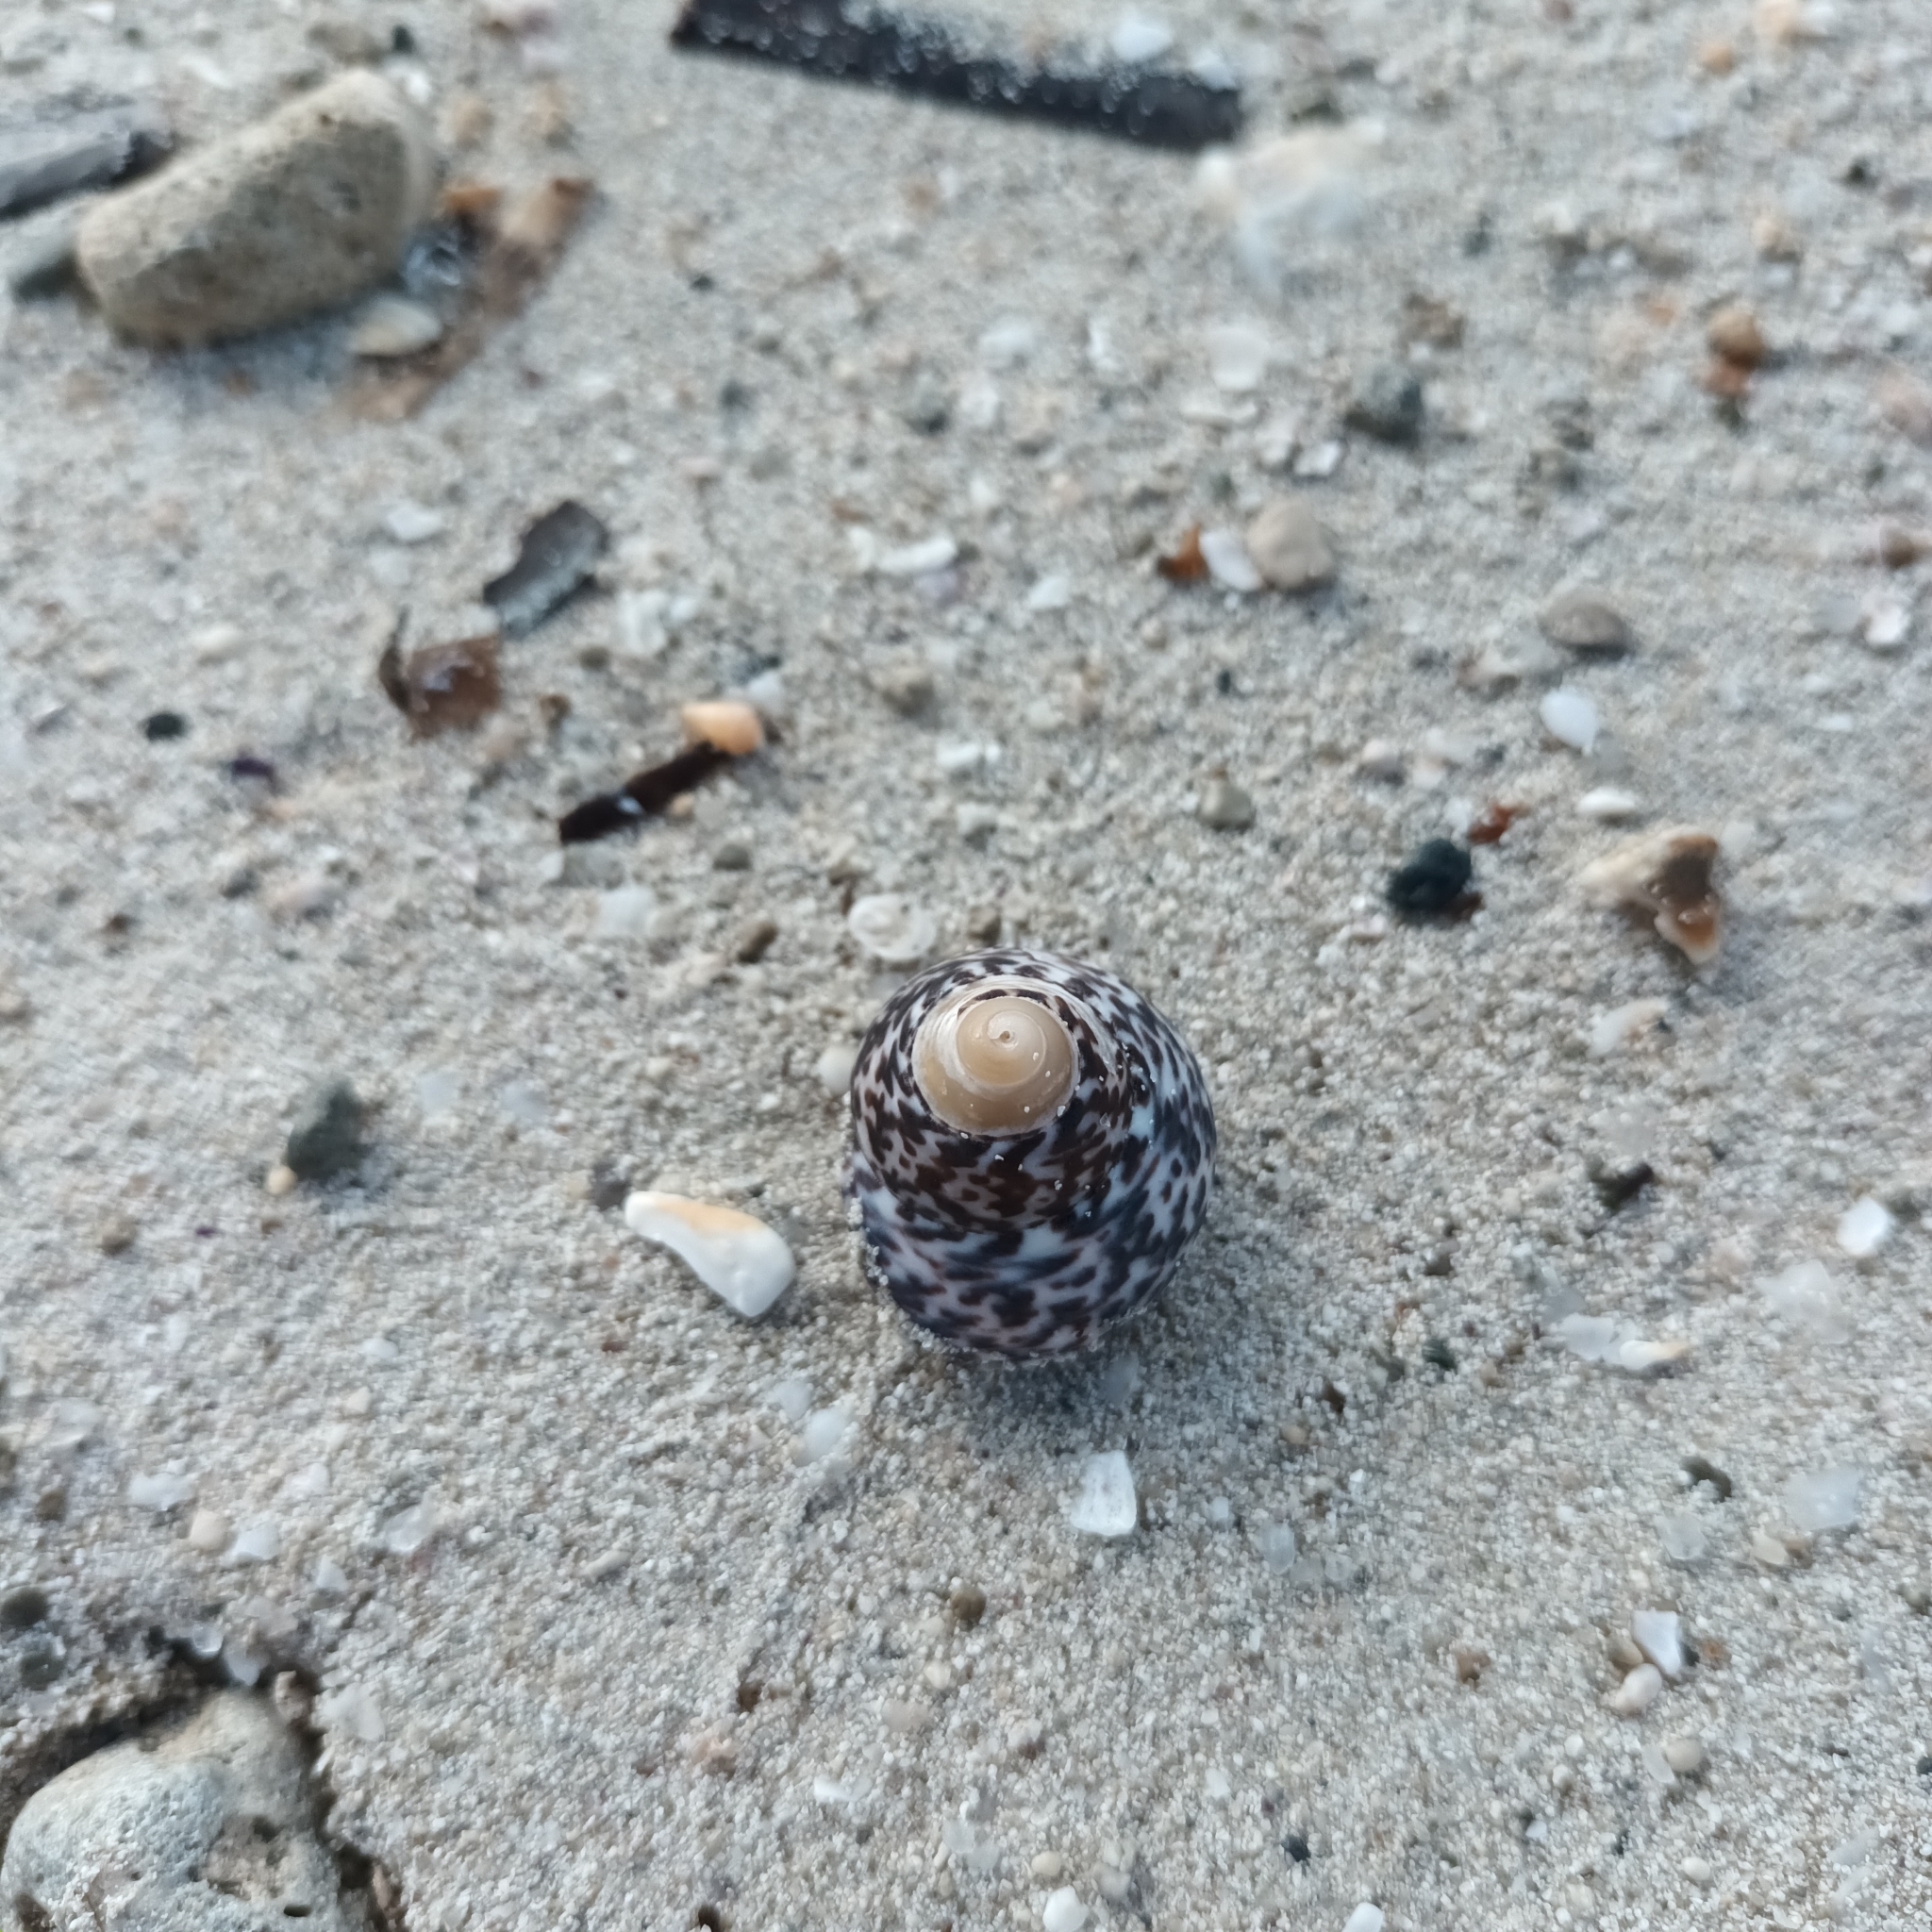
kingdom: Animalia
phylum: Mollusca
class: Gastropoda
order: Trochida
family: Trochidae
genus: Phorcus
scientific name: Phorcus turbinatus
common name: Turbinate monodont
